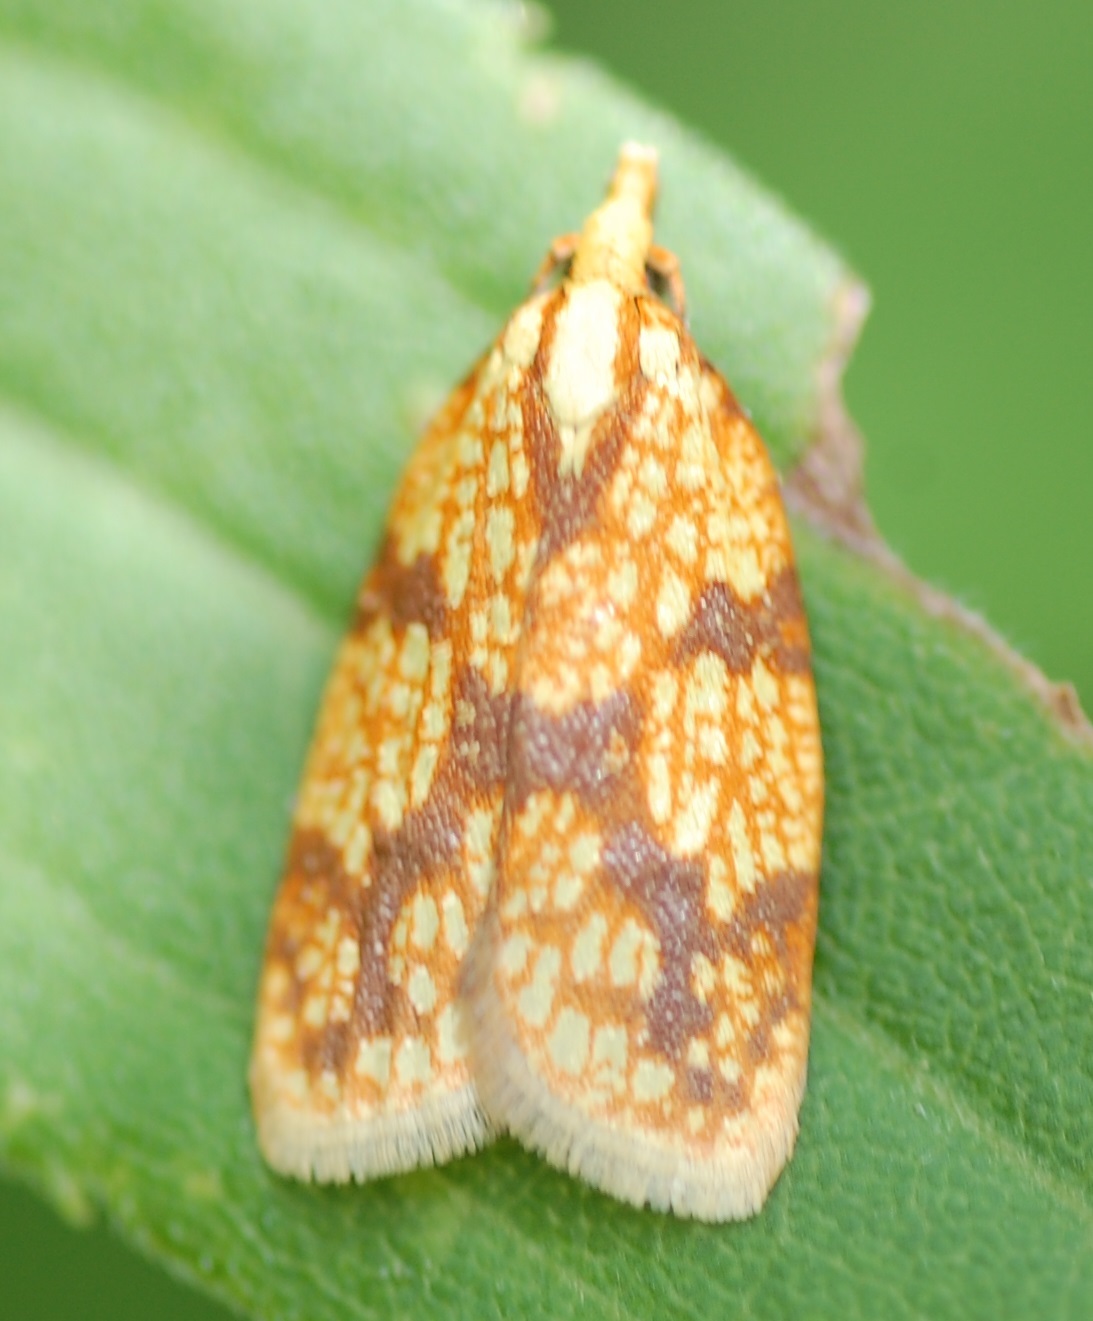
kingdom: Animalia
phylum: Arthropoda
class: Insecta
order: Lepidoptera
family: Tortricidae
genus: Sparganothis
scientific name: Sparganothis sulfureana
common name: Sparganothis fruitworm moth
